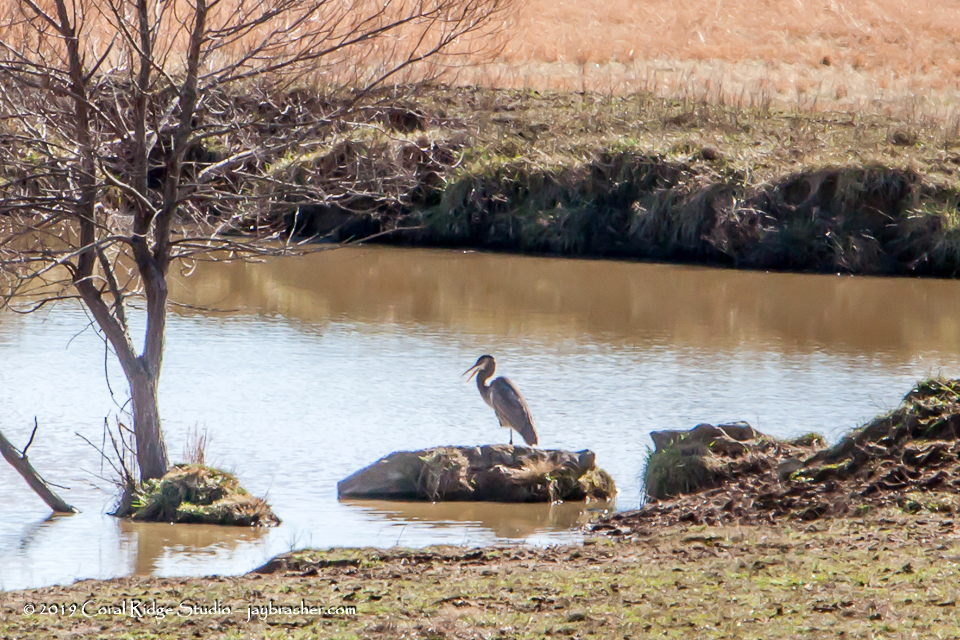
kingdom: Animalia
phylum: Chordata
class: Aves
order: Pelecaniformes
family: Ardeidae
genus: Ardea
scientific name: Ardea herodias
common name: Great blue heron
